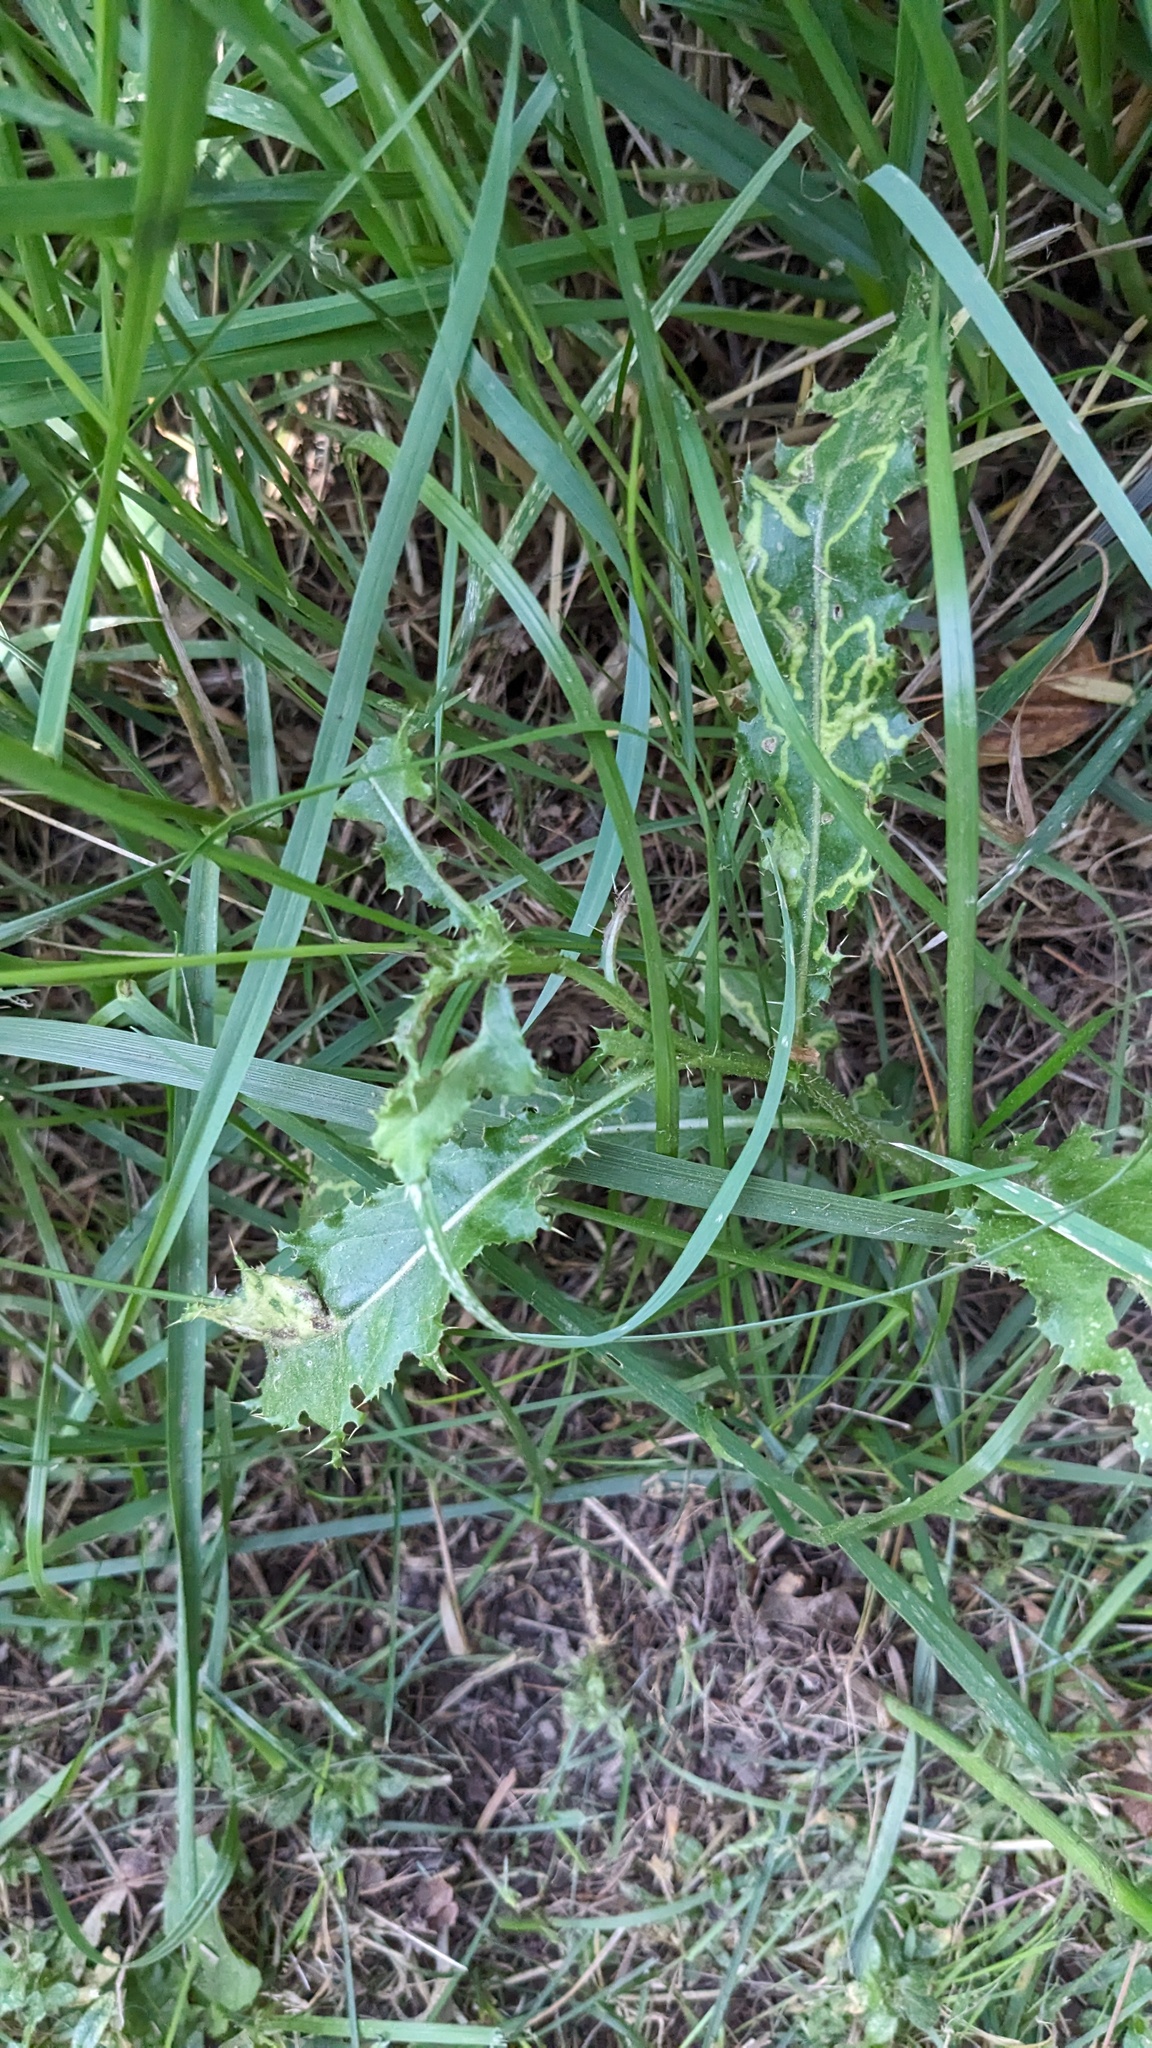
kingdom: Plantae
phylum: Tracheophyta
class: Magnoliopsida
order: Asterales
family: Asteraceae
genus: Cirsium
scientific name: Cirsium arvense
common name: Creeping thistle
